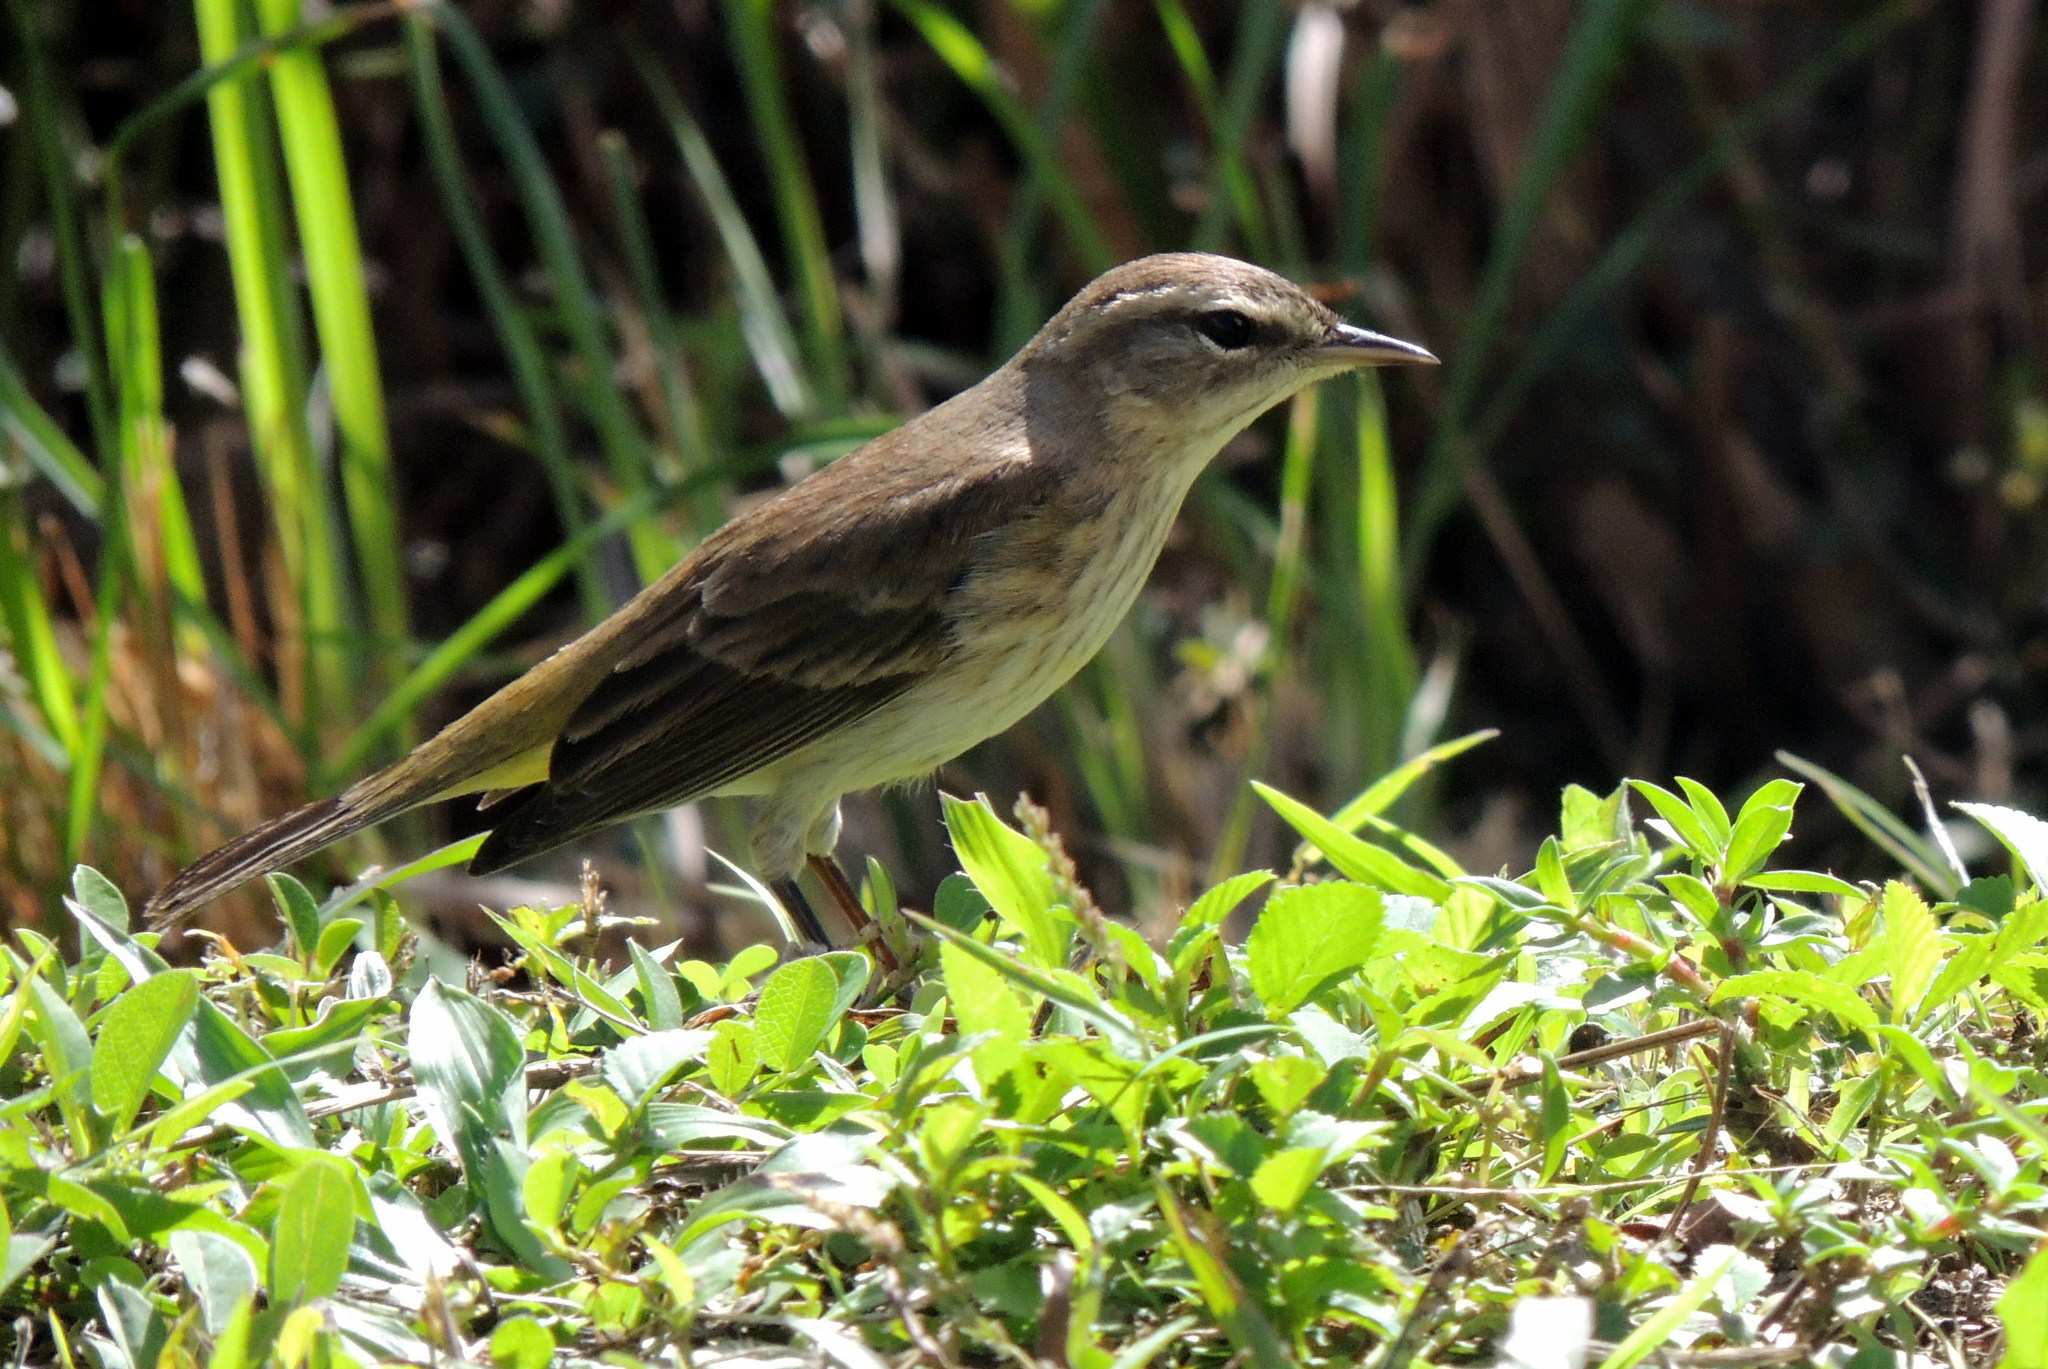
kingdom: Animalia
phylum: Chordata
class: Aves
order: Passeriformes
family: Parulidae
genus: Setophaga
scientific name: Setophaga palmarum
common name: Palm warbler
